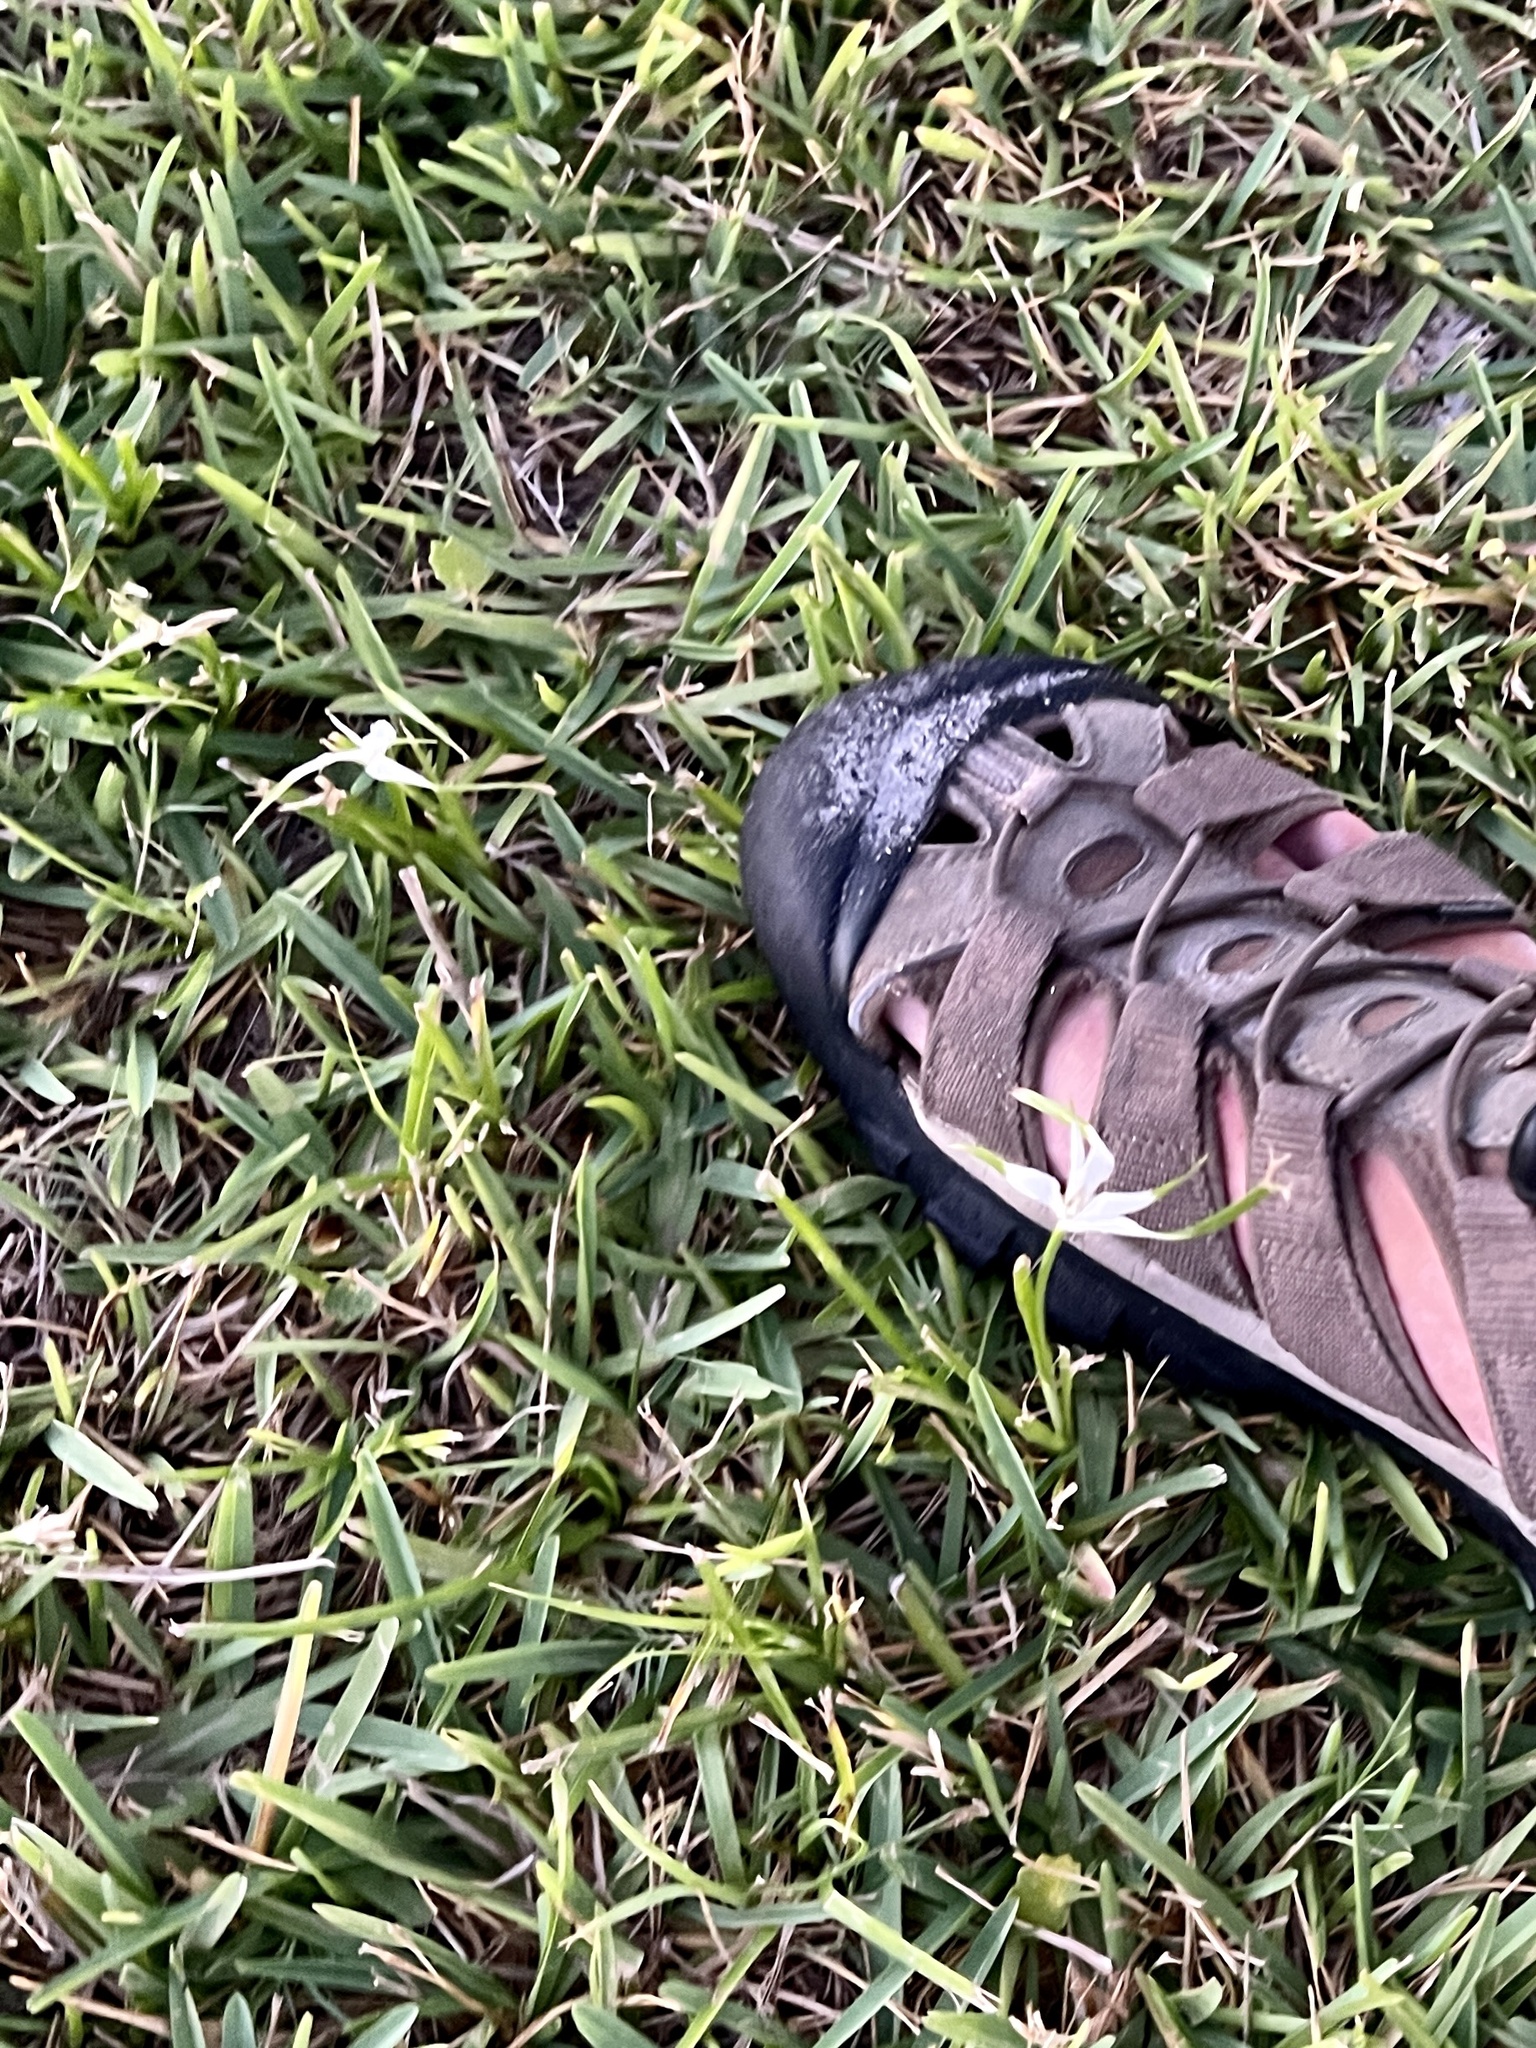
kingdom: Plantae
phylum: Tracheophyta
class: Liliopsida
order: Poales
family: Cyperaceae
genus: Rhynchospora
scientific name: Rhynchospora colorata
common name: Star sedge
